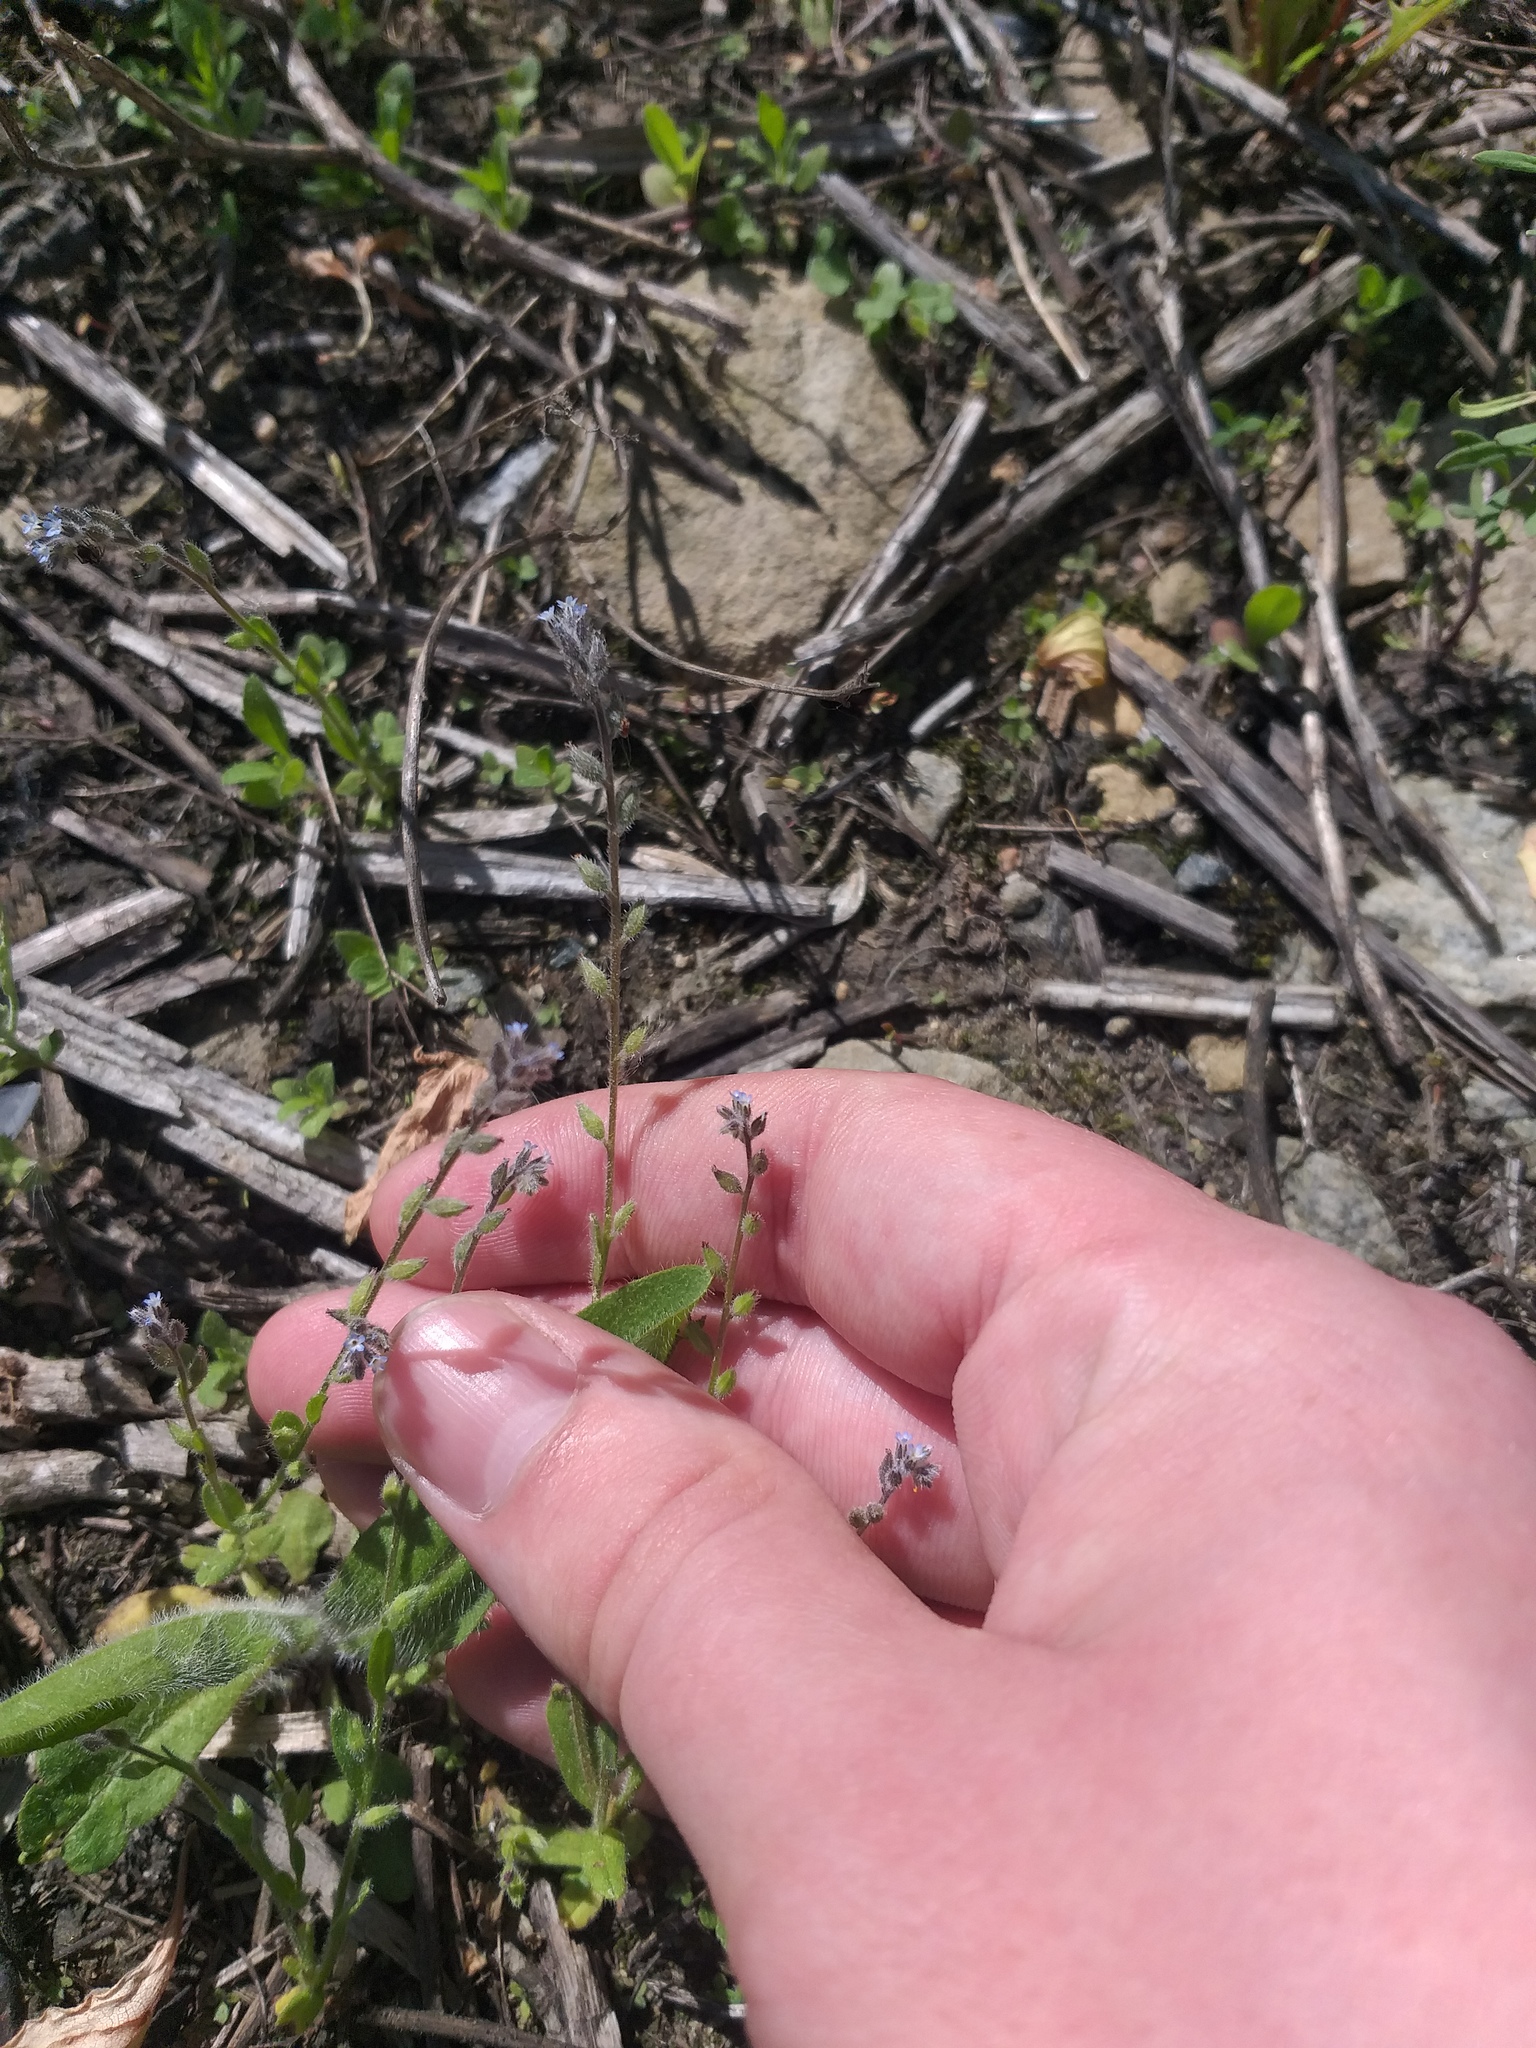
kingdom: Plantae
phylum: Tracheophyta
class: Magnoliopsida
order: Boraginales
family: Boraginaceae
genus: Myosotis
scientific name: Myosotis stricta
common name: Strict forget-me-not
